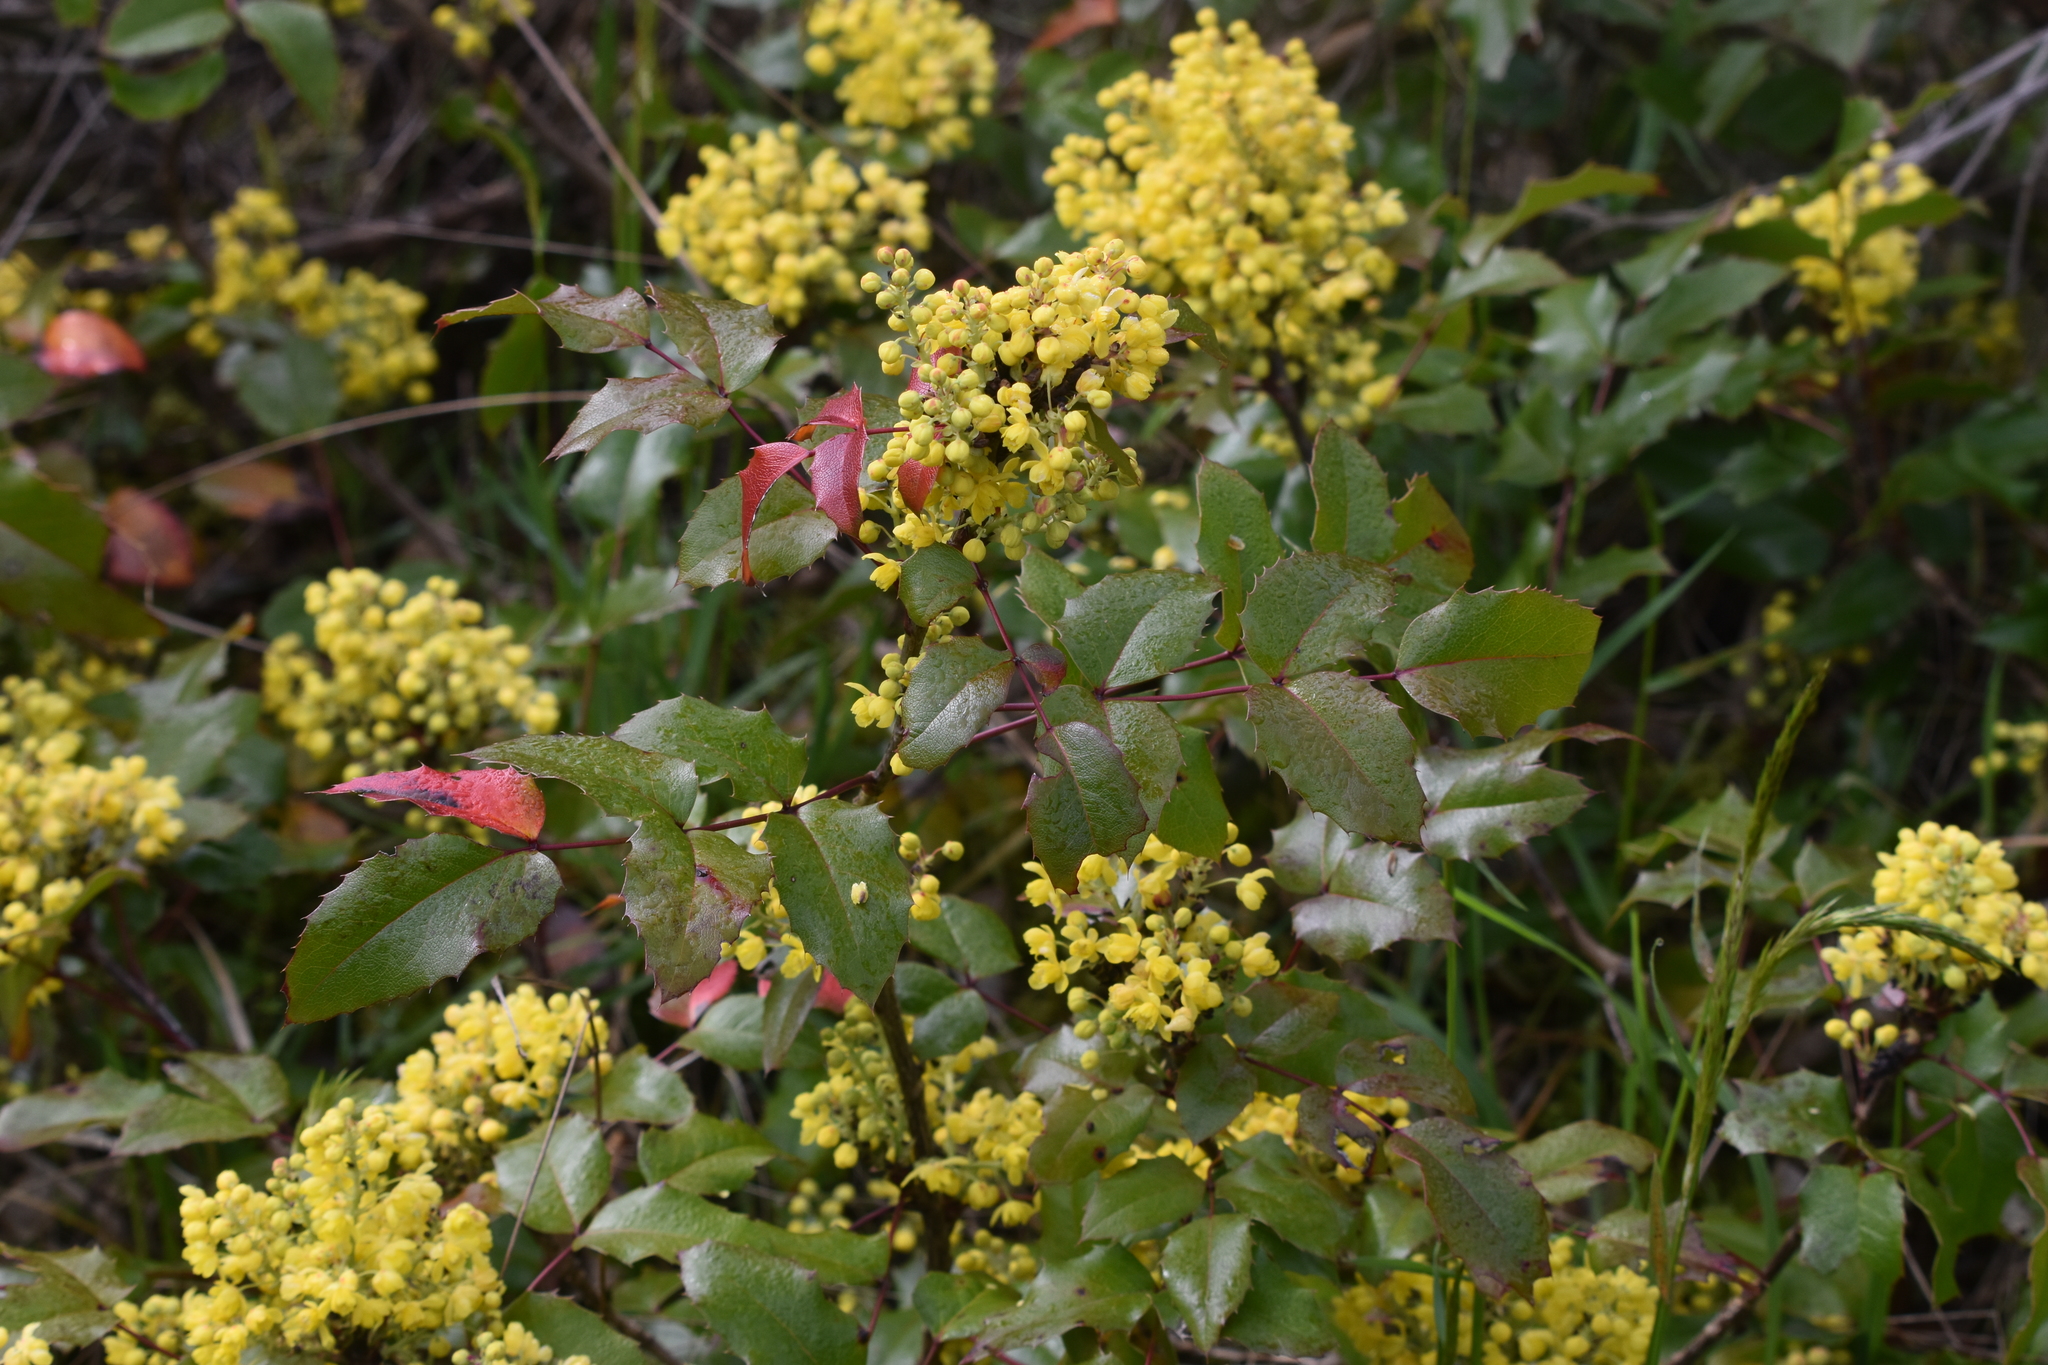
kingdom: Plantae
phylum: Tracheophyta
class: Magnoliopsida
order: Ranunculales
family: Berberidaceae
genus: Mahonia
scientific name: Mahonia aquifolium
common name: Oregon-grape
